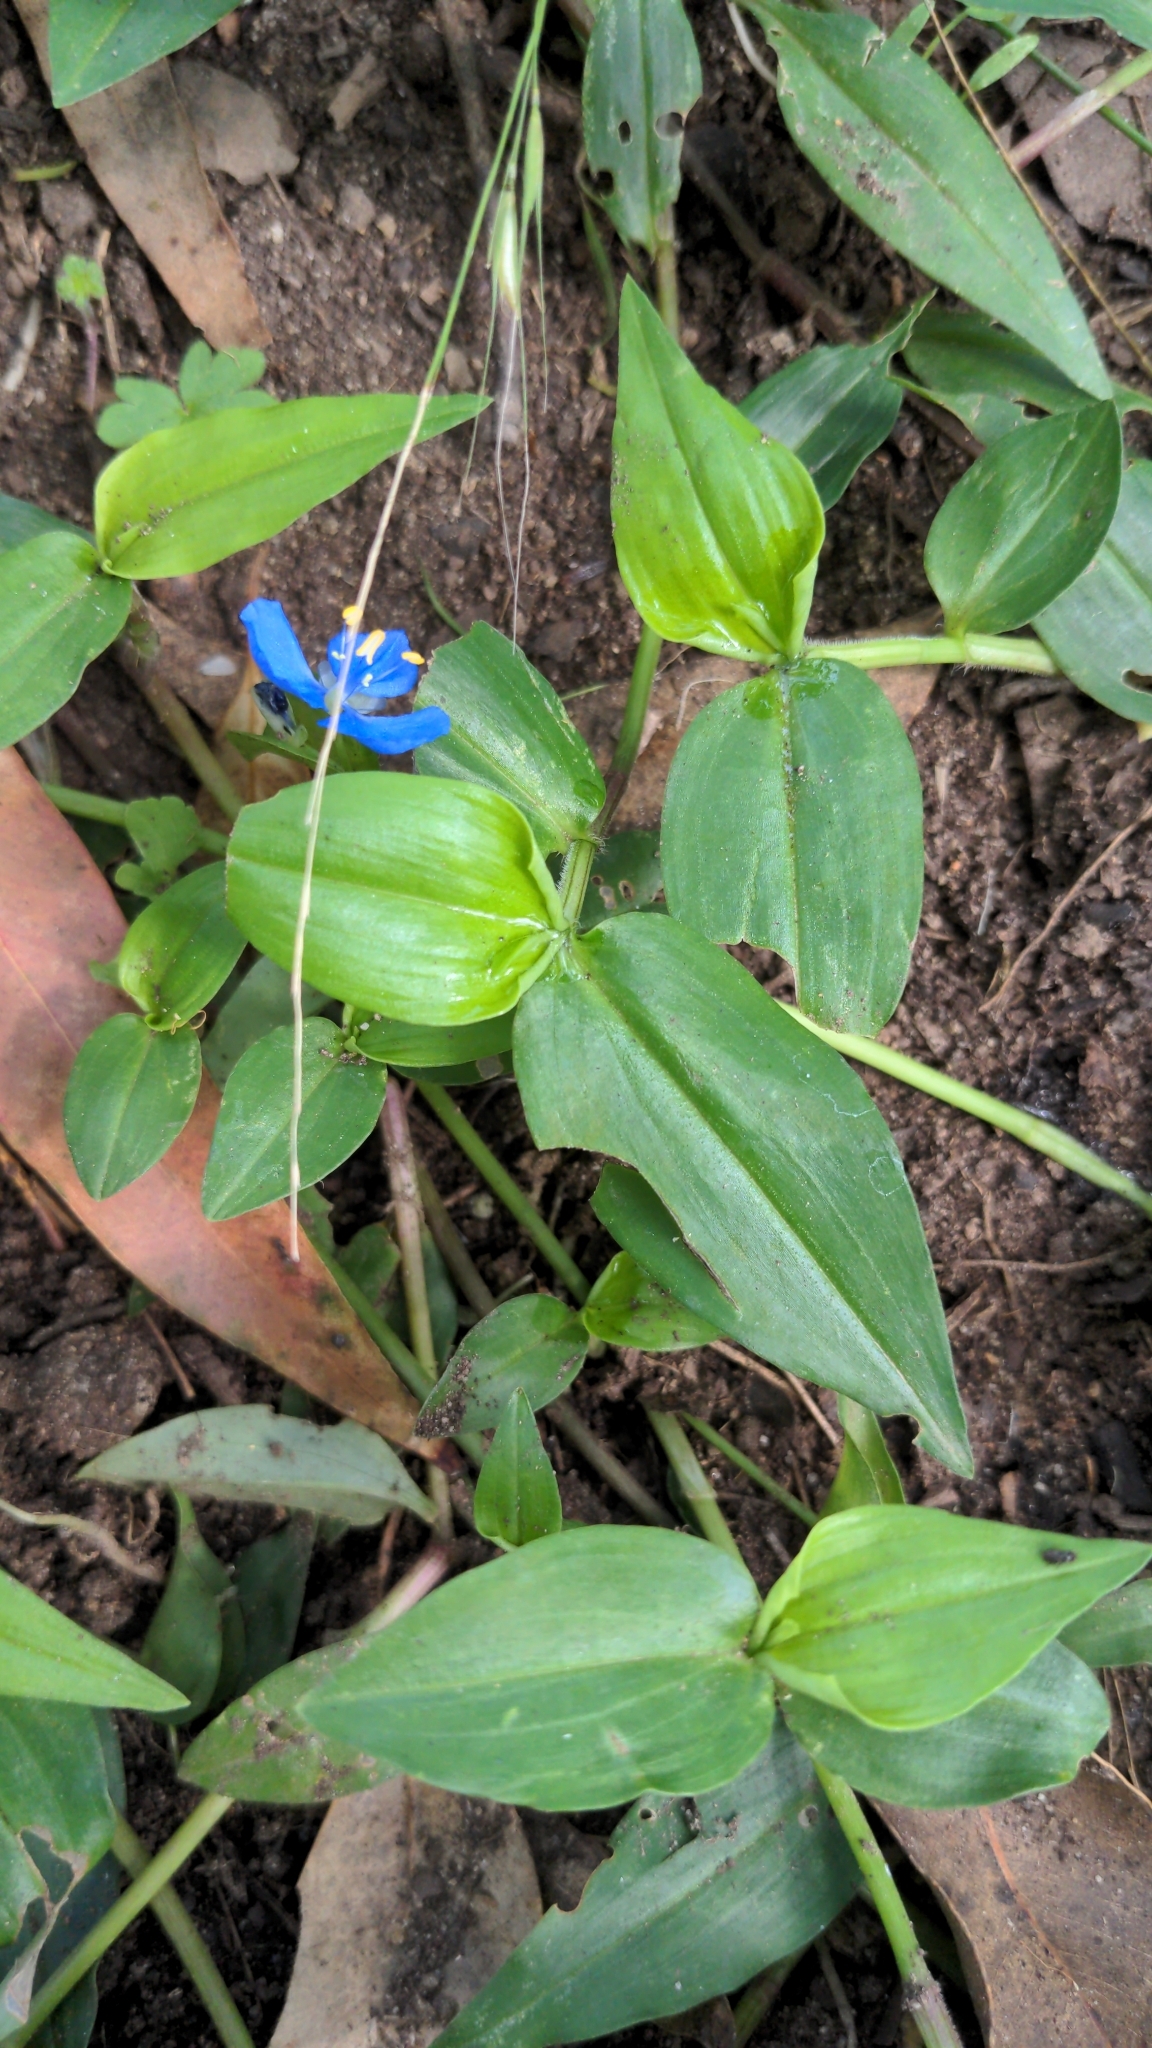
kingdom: Plantae
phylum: Tracheophyta
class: Liliopsida
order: Commelinales
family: Commelinaceae
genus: Commelina
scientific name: Commelina cyanea
